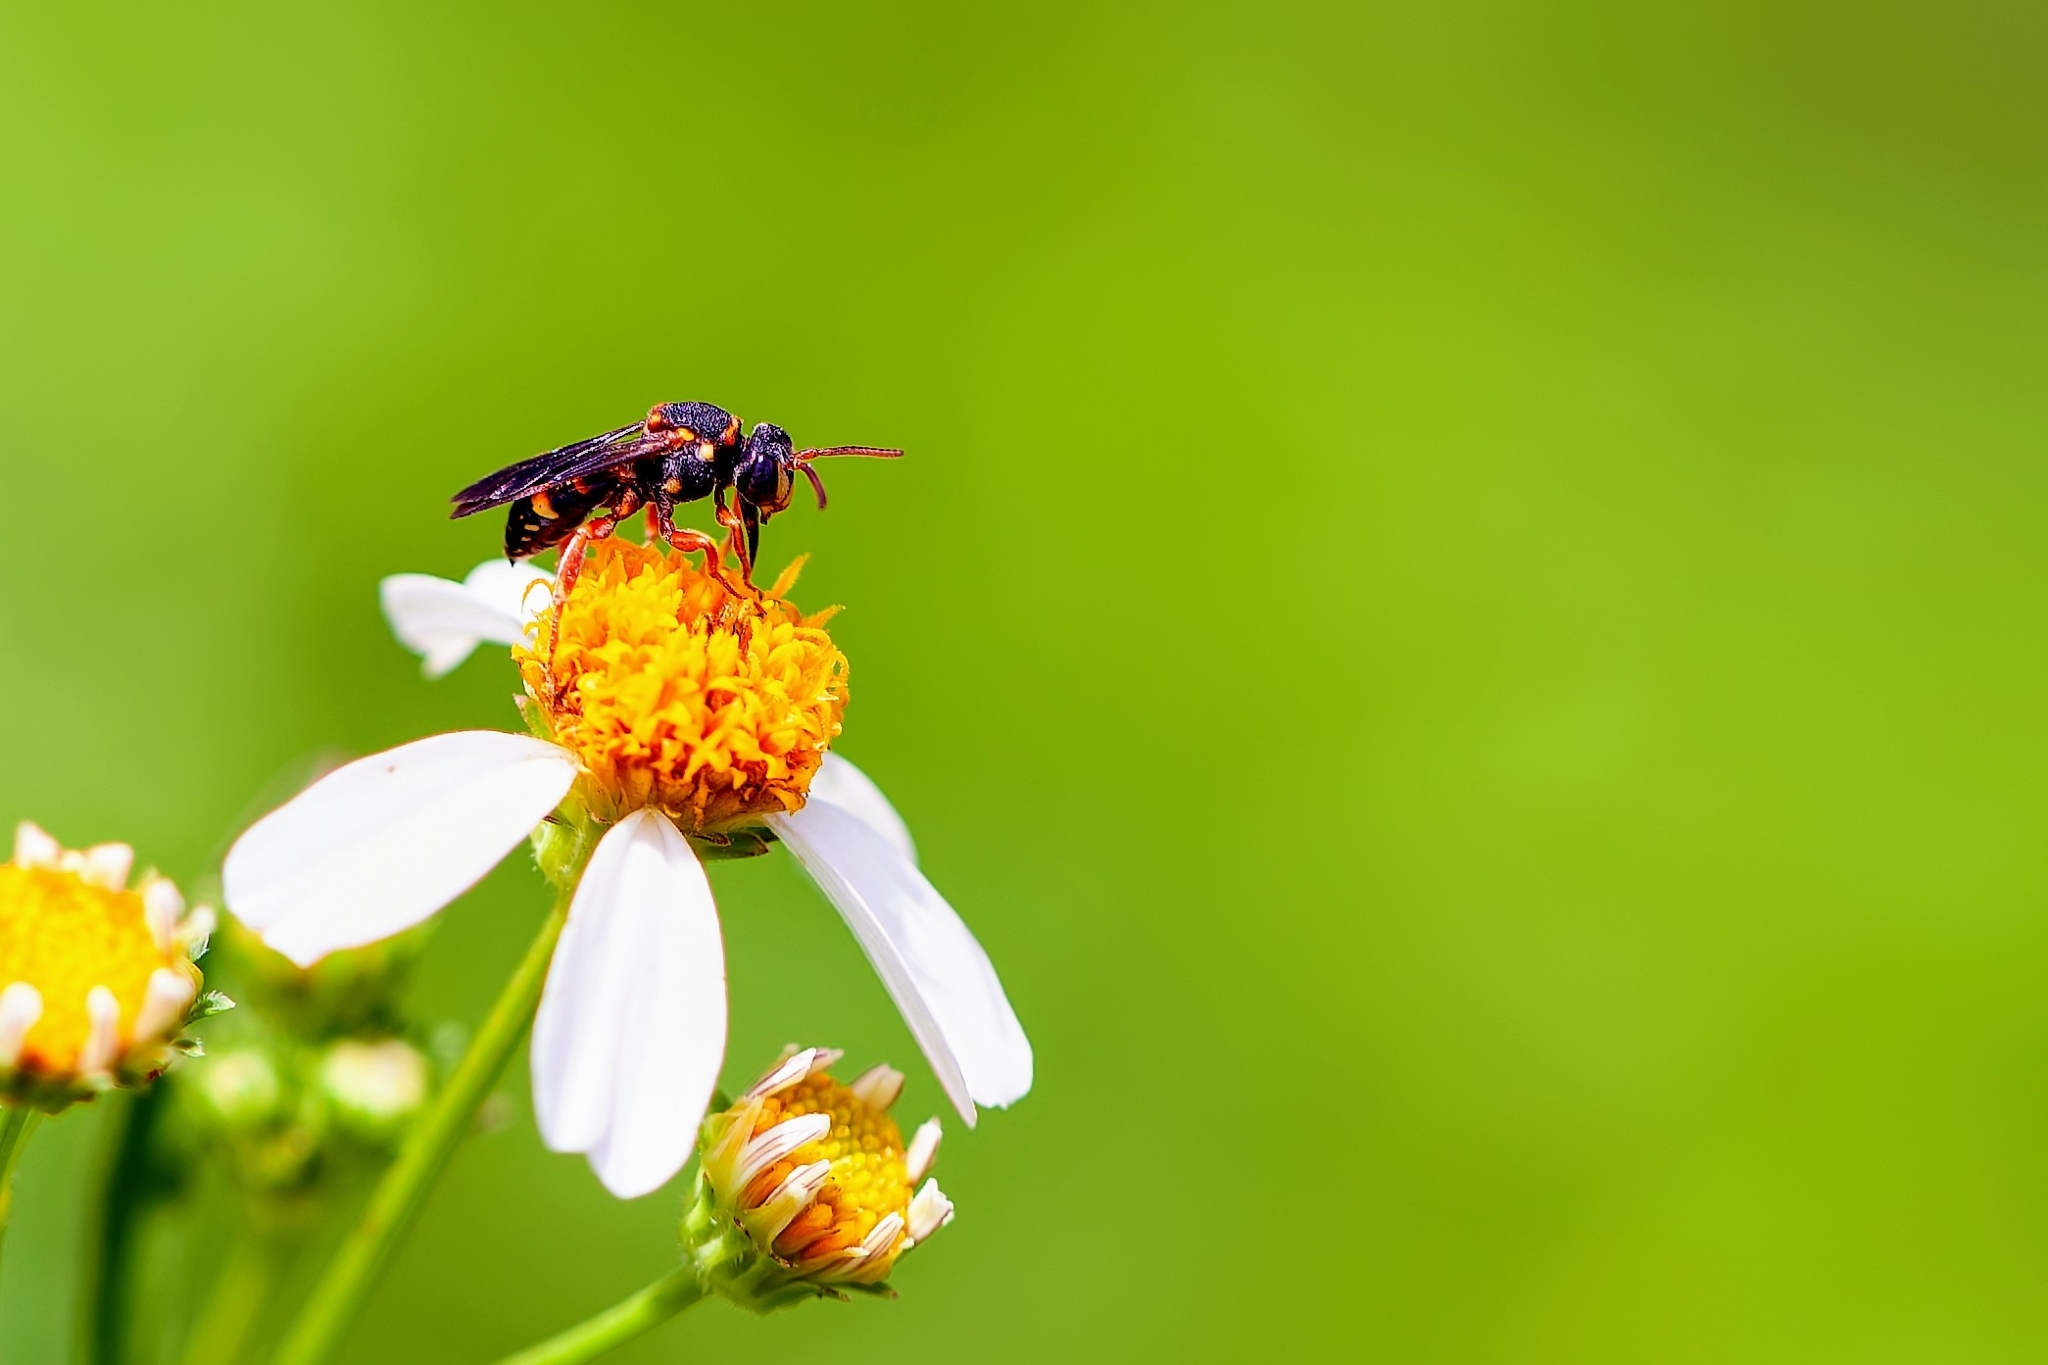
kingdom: Animalia
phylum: Arthropoda
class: Insecta
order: Hymenoptera
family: Apidae
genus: Nomada
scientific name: Nomada fervida
